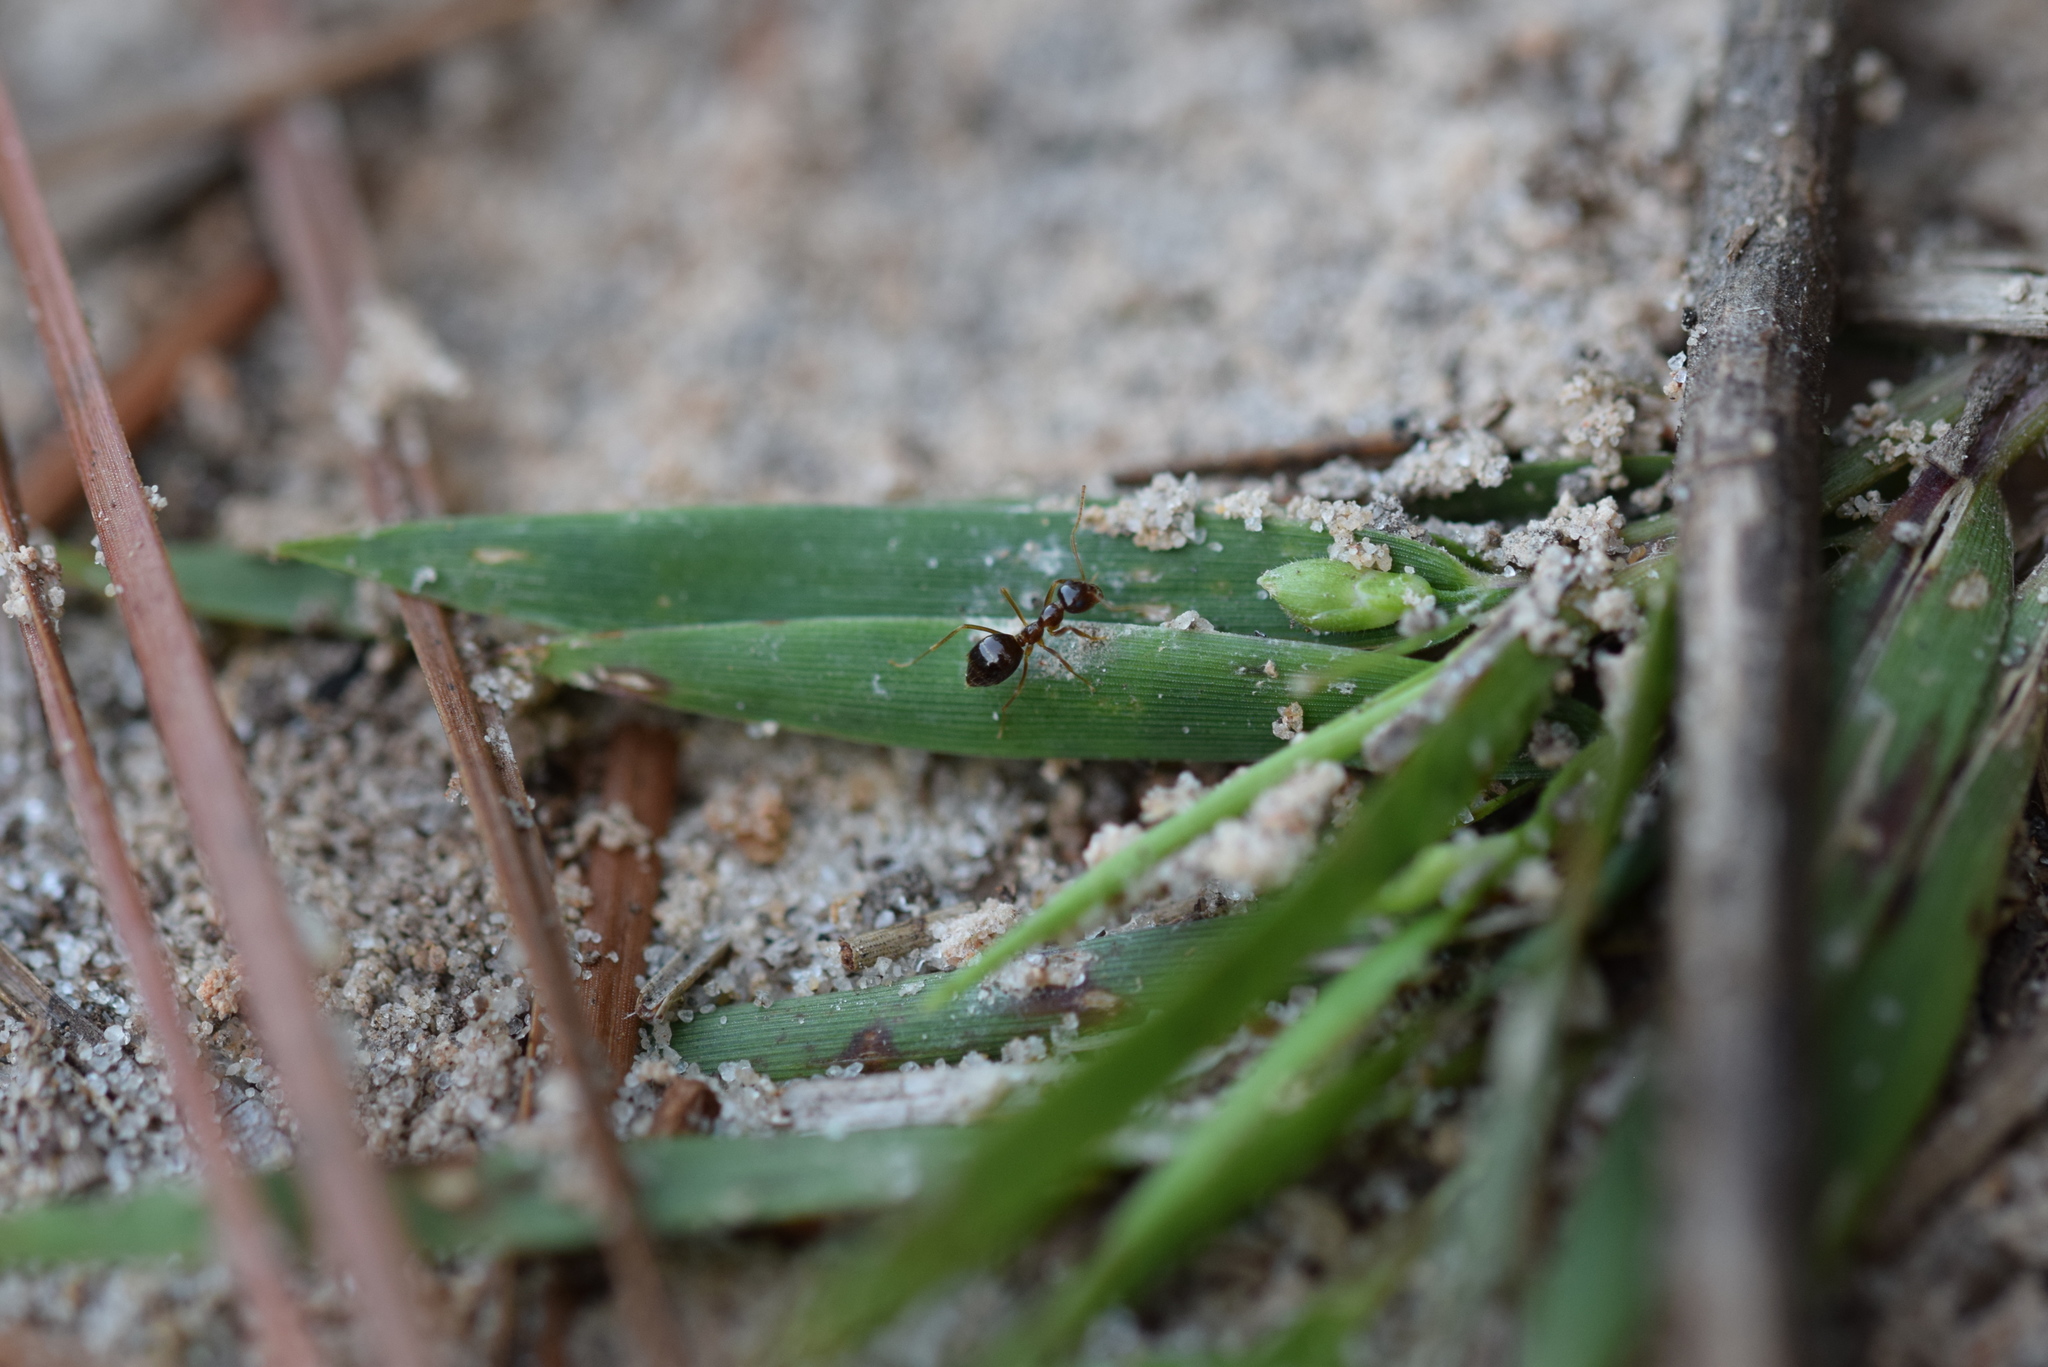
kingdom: Animalia
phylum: Arthropoda
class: Insecta
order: Hymenoptera
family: Formicidae
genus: Prenolepis
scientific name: Prenolepis imparis
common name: Small honey ant
